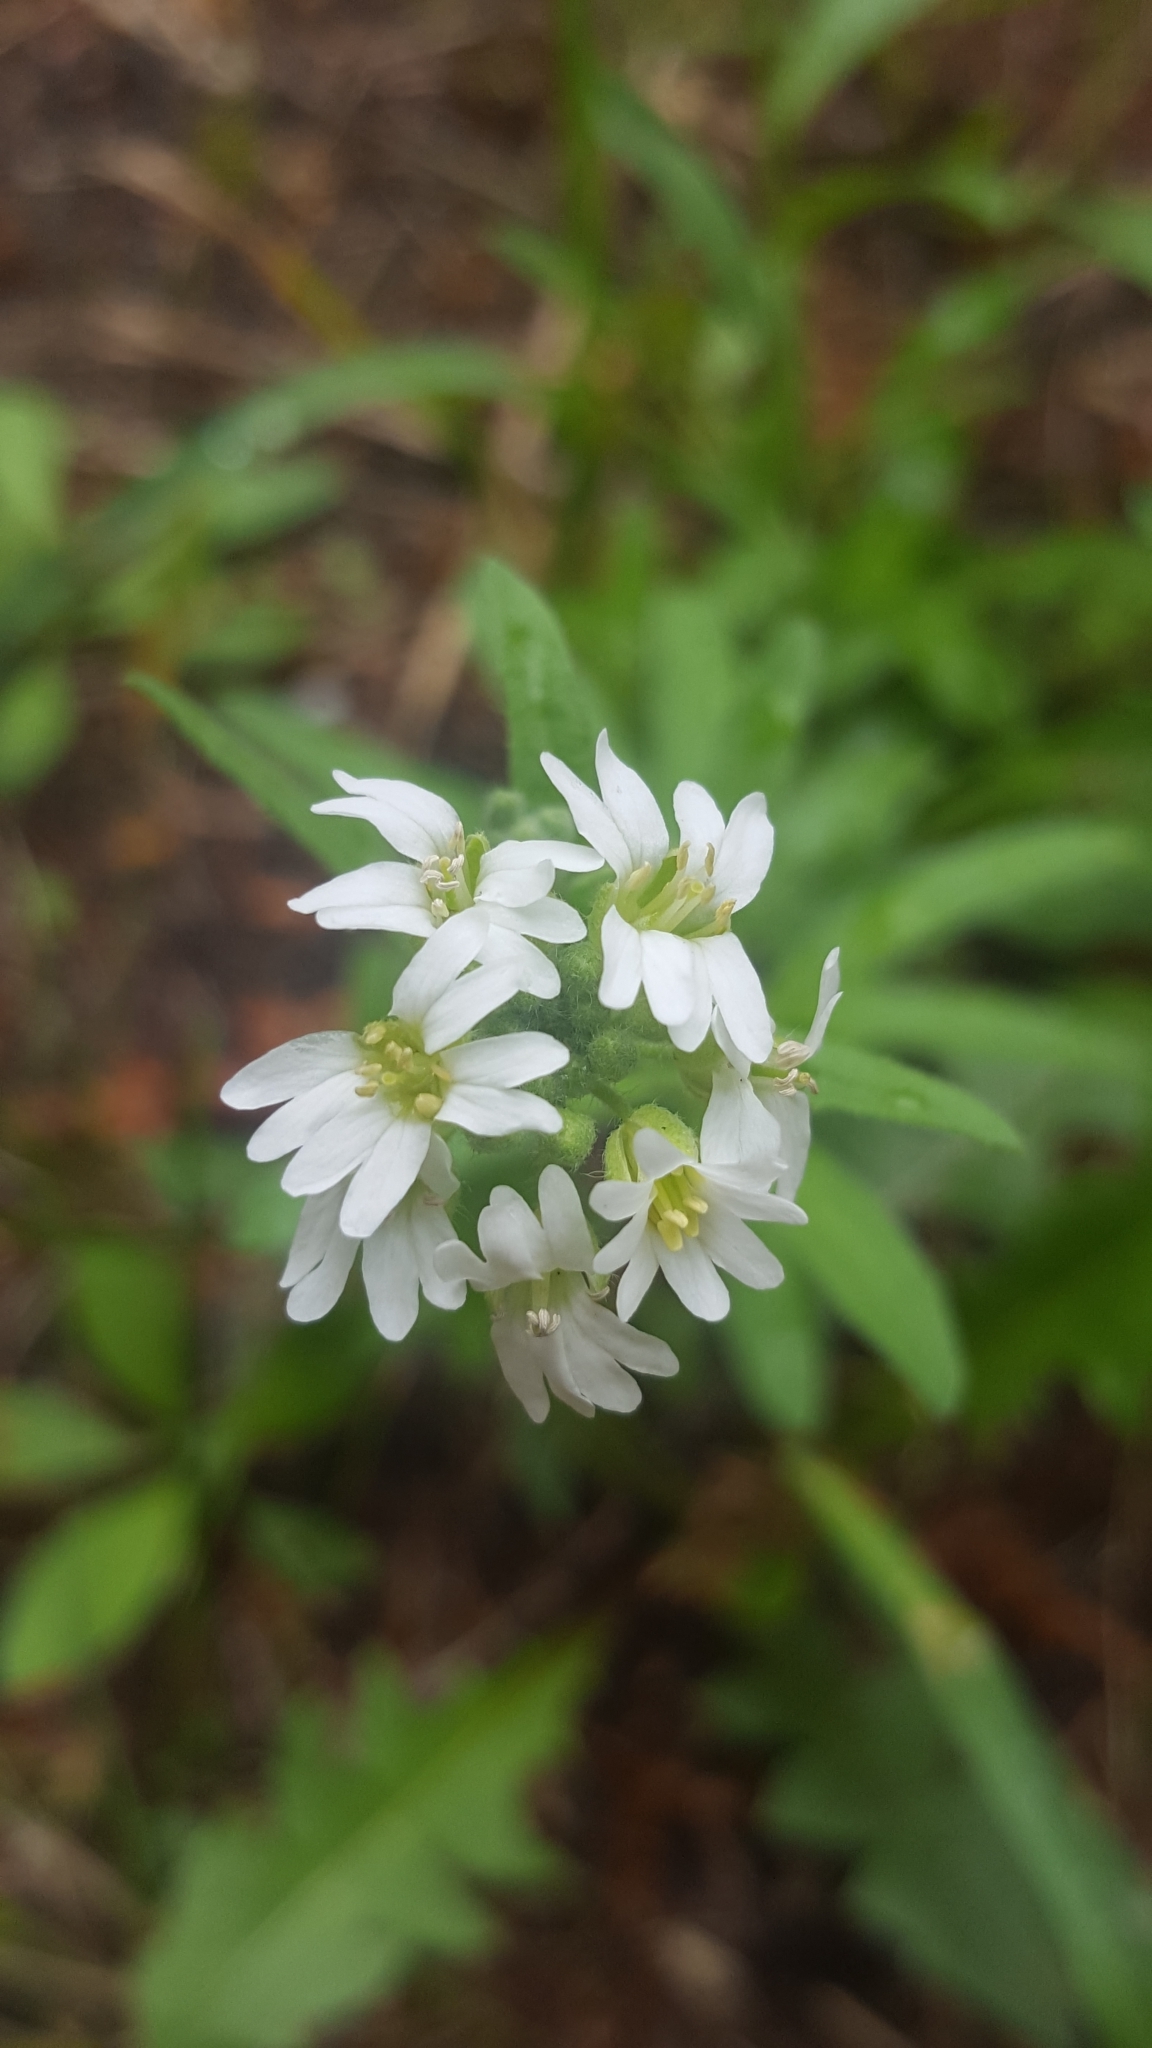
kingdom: Plantae
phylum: Tracheophyta
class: Magnoliopsida
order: Brassicales
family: Brassicaceae
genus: Berteroa
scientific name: Berteroa incana
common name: Hoary alison
